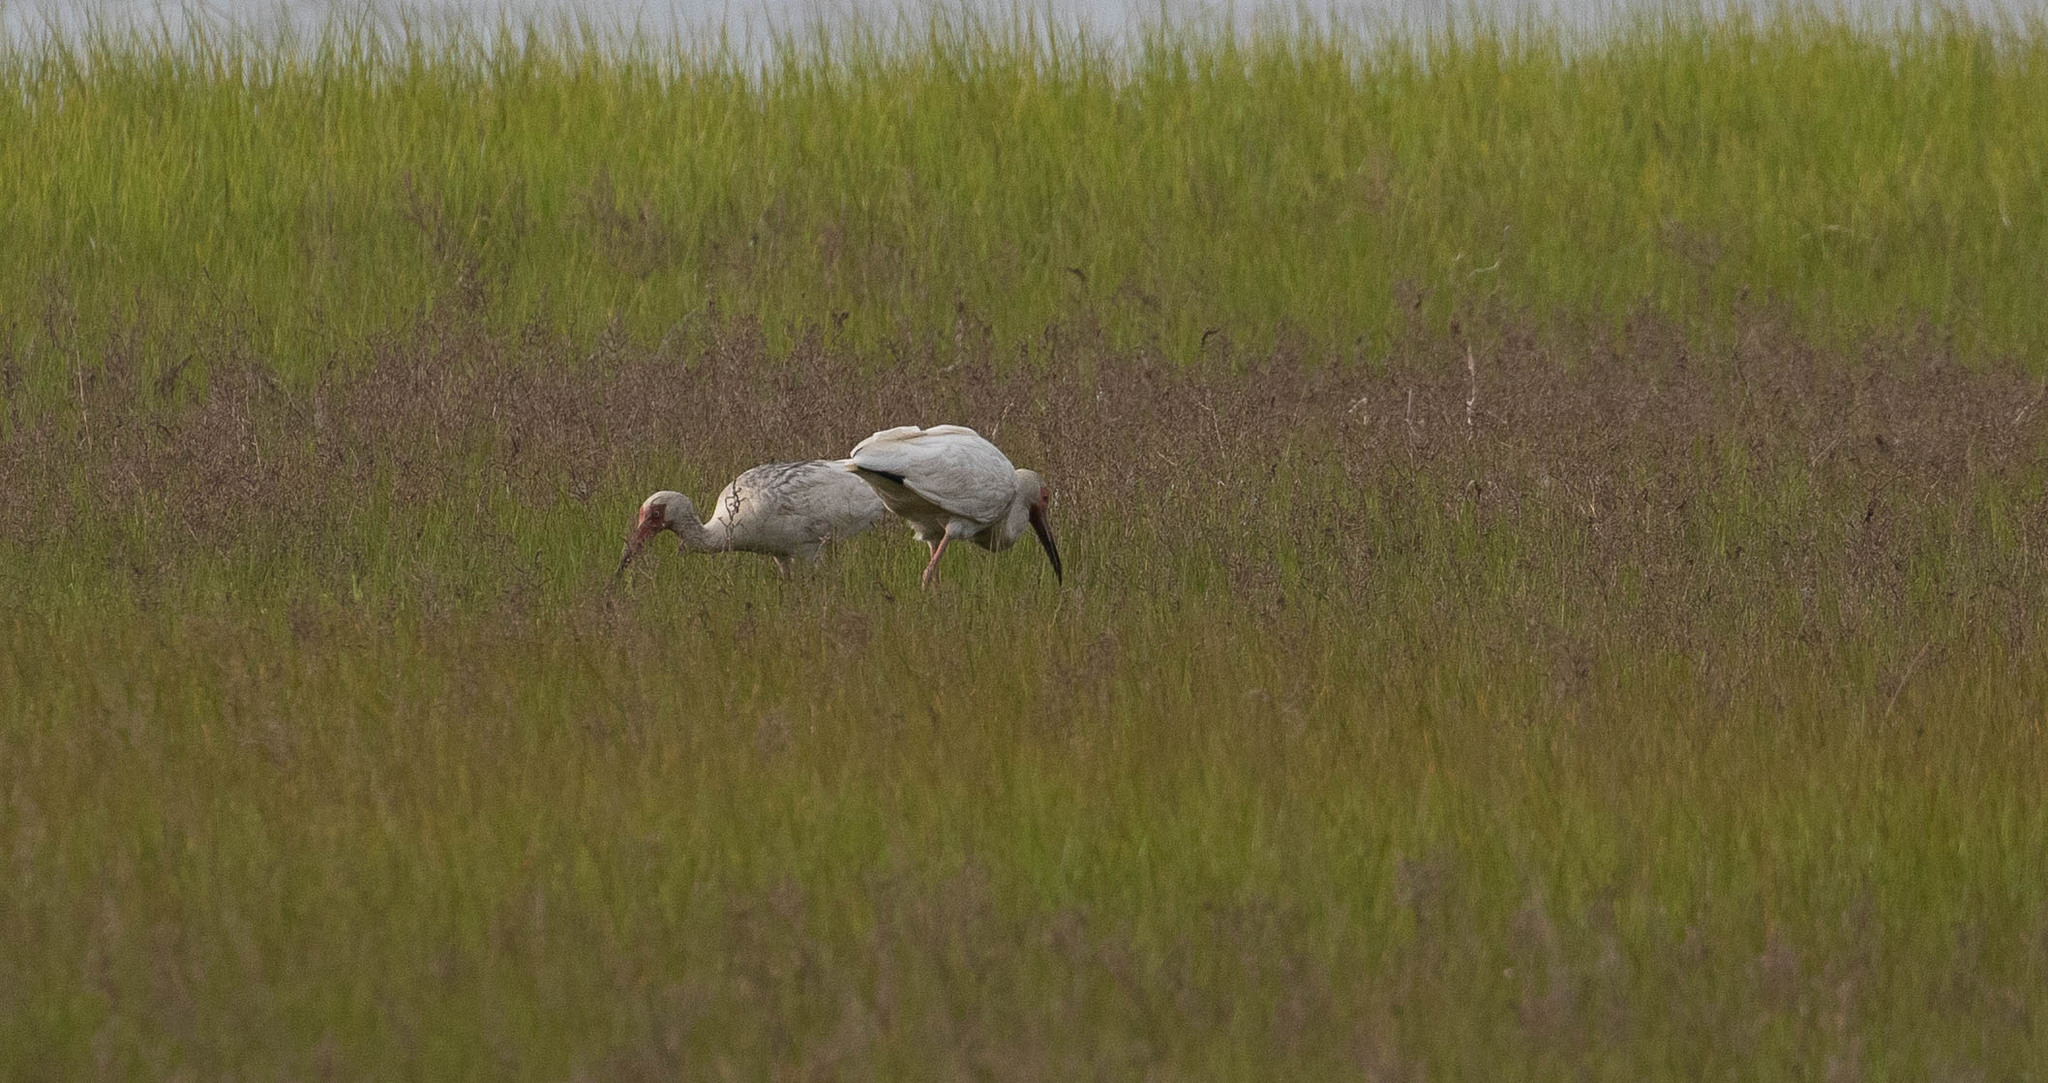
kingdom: Animalia
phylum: Chordata
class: Aves
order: Pelecaniformes
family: Threskiornithidae
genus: Eudocimus
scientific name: Eudocimus albus
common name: White ibis
